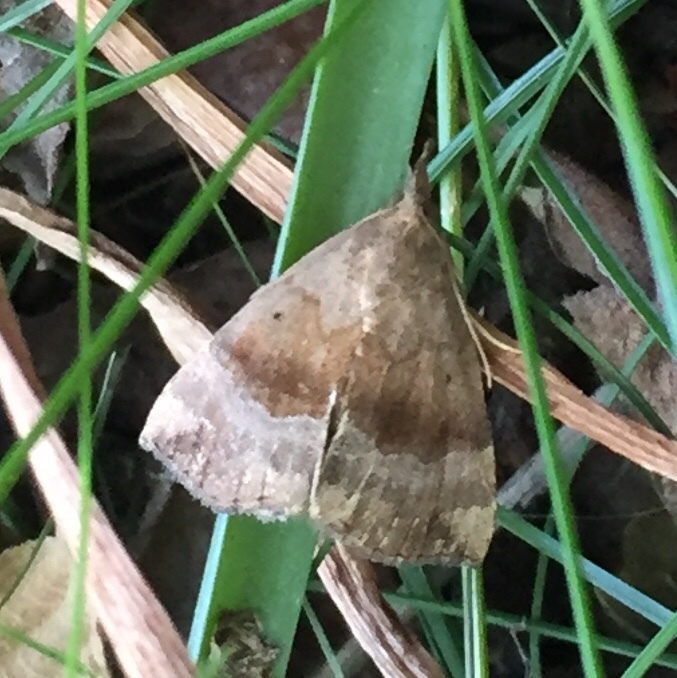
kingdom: Animalia
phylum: Arthropoda
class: Insecta
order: Lepidoptera
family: Erebidae
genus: Hypena
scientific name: Hypena madefactalis
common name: Gray-edged snout
